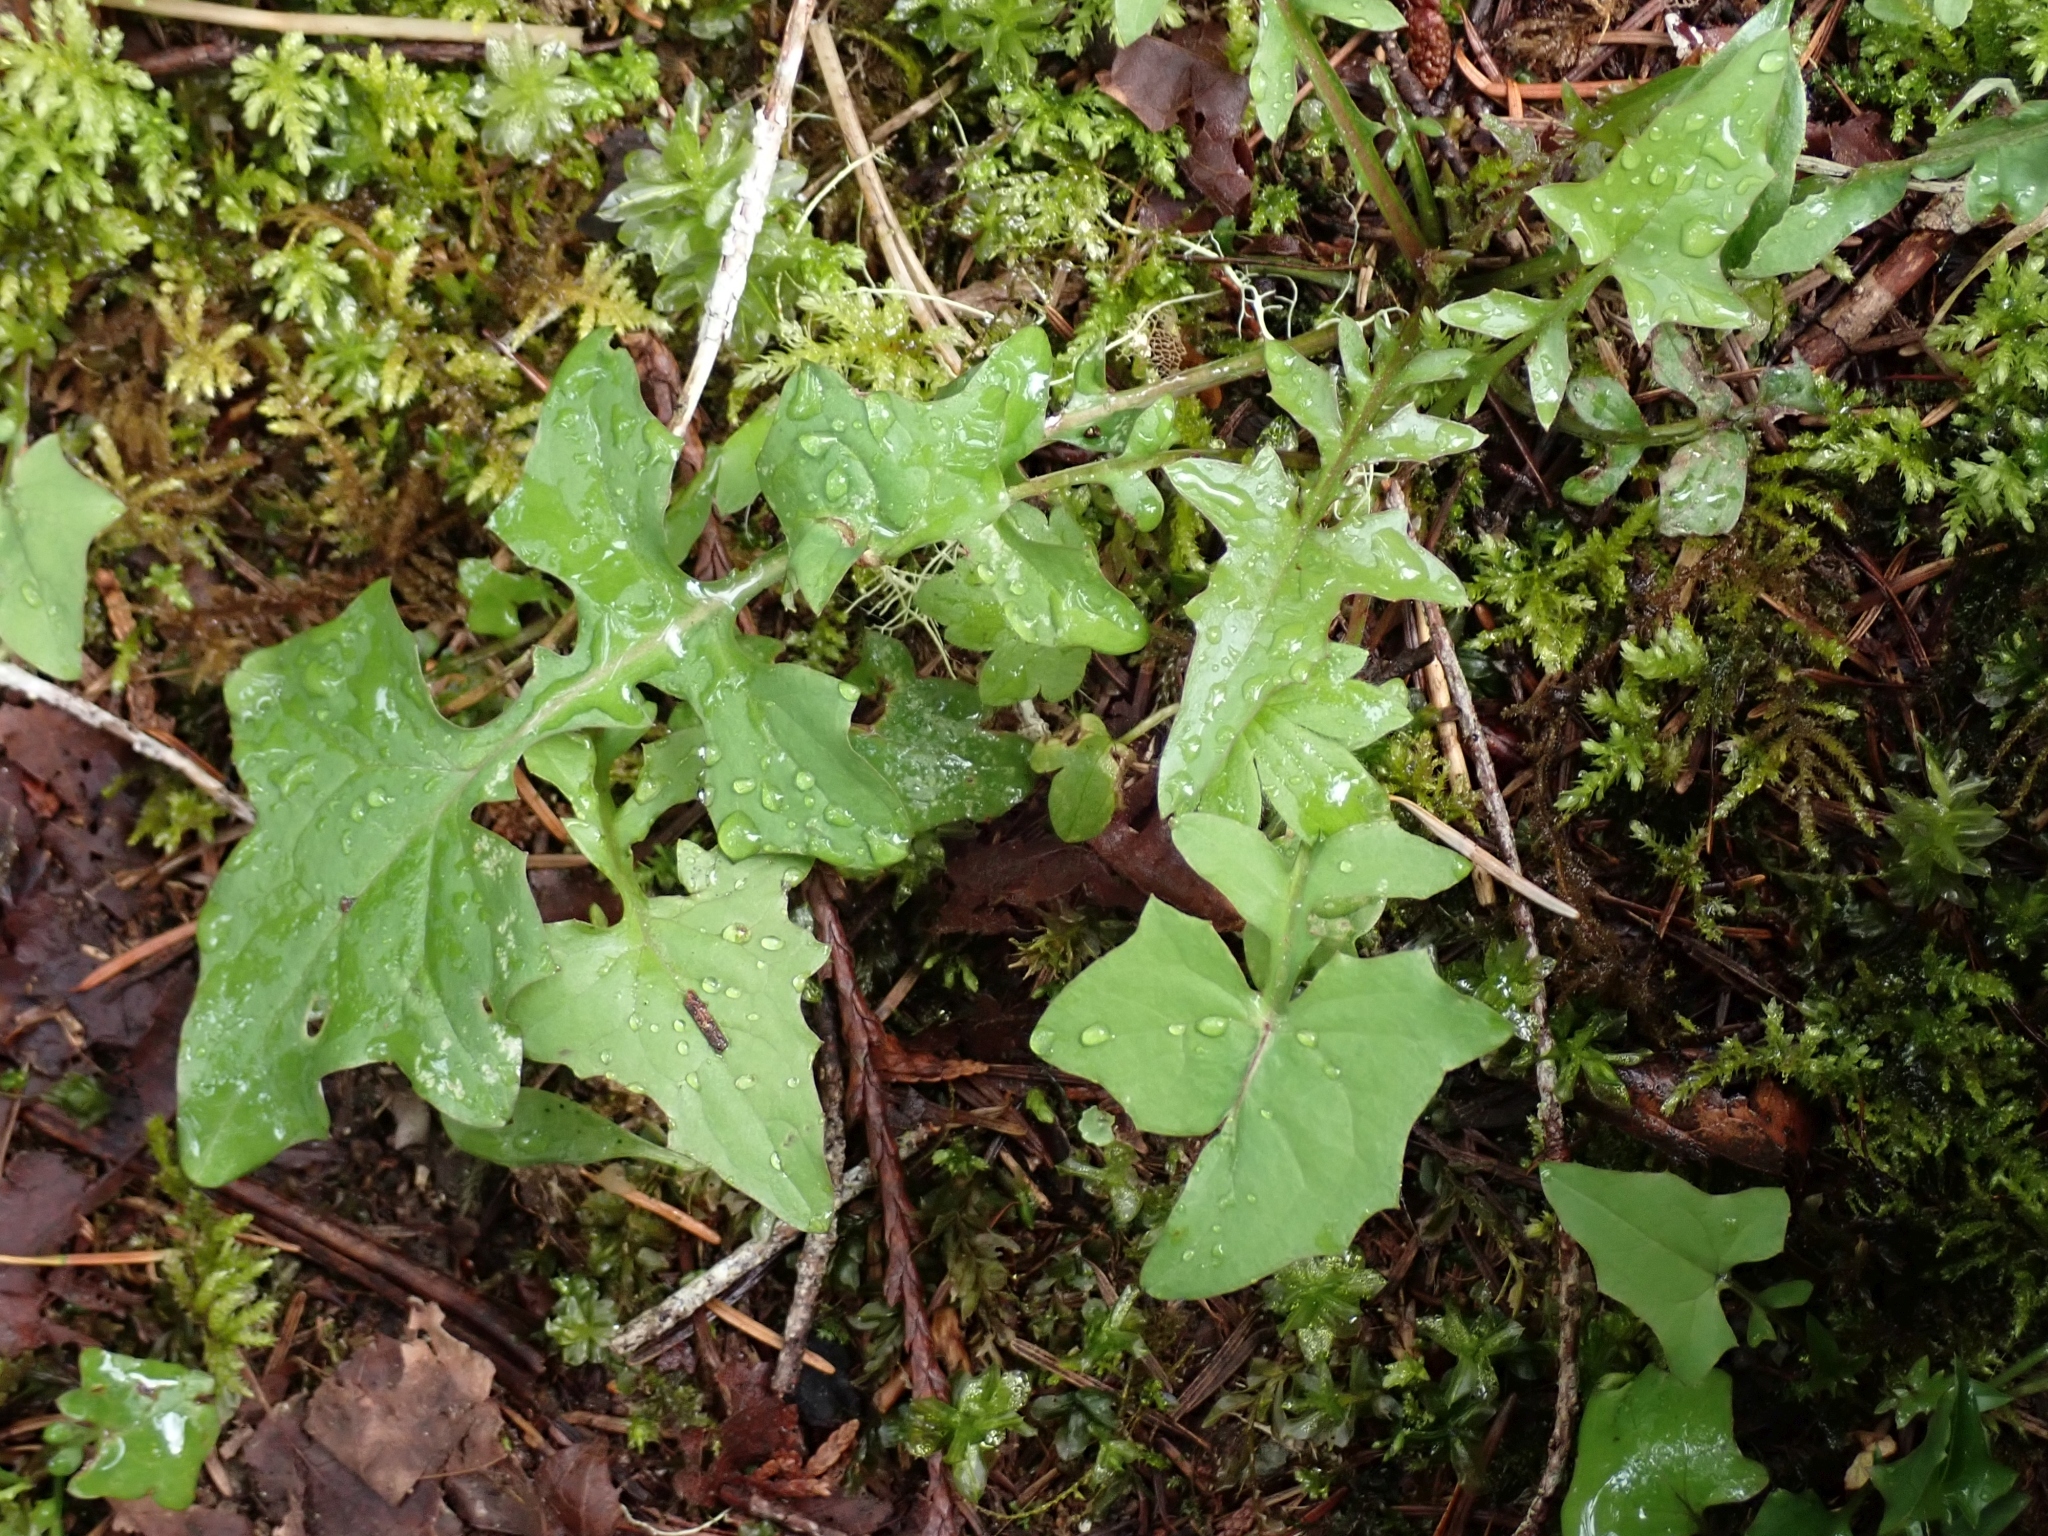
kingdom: Plantae
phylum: Tracheophyta
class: Magnoliopsida
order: Asterales
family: Asteraceae
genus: Mycelis
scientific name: Mycelis muralis
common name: Wall lettuce
